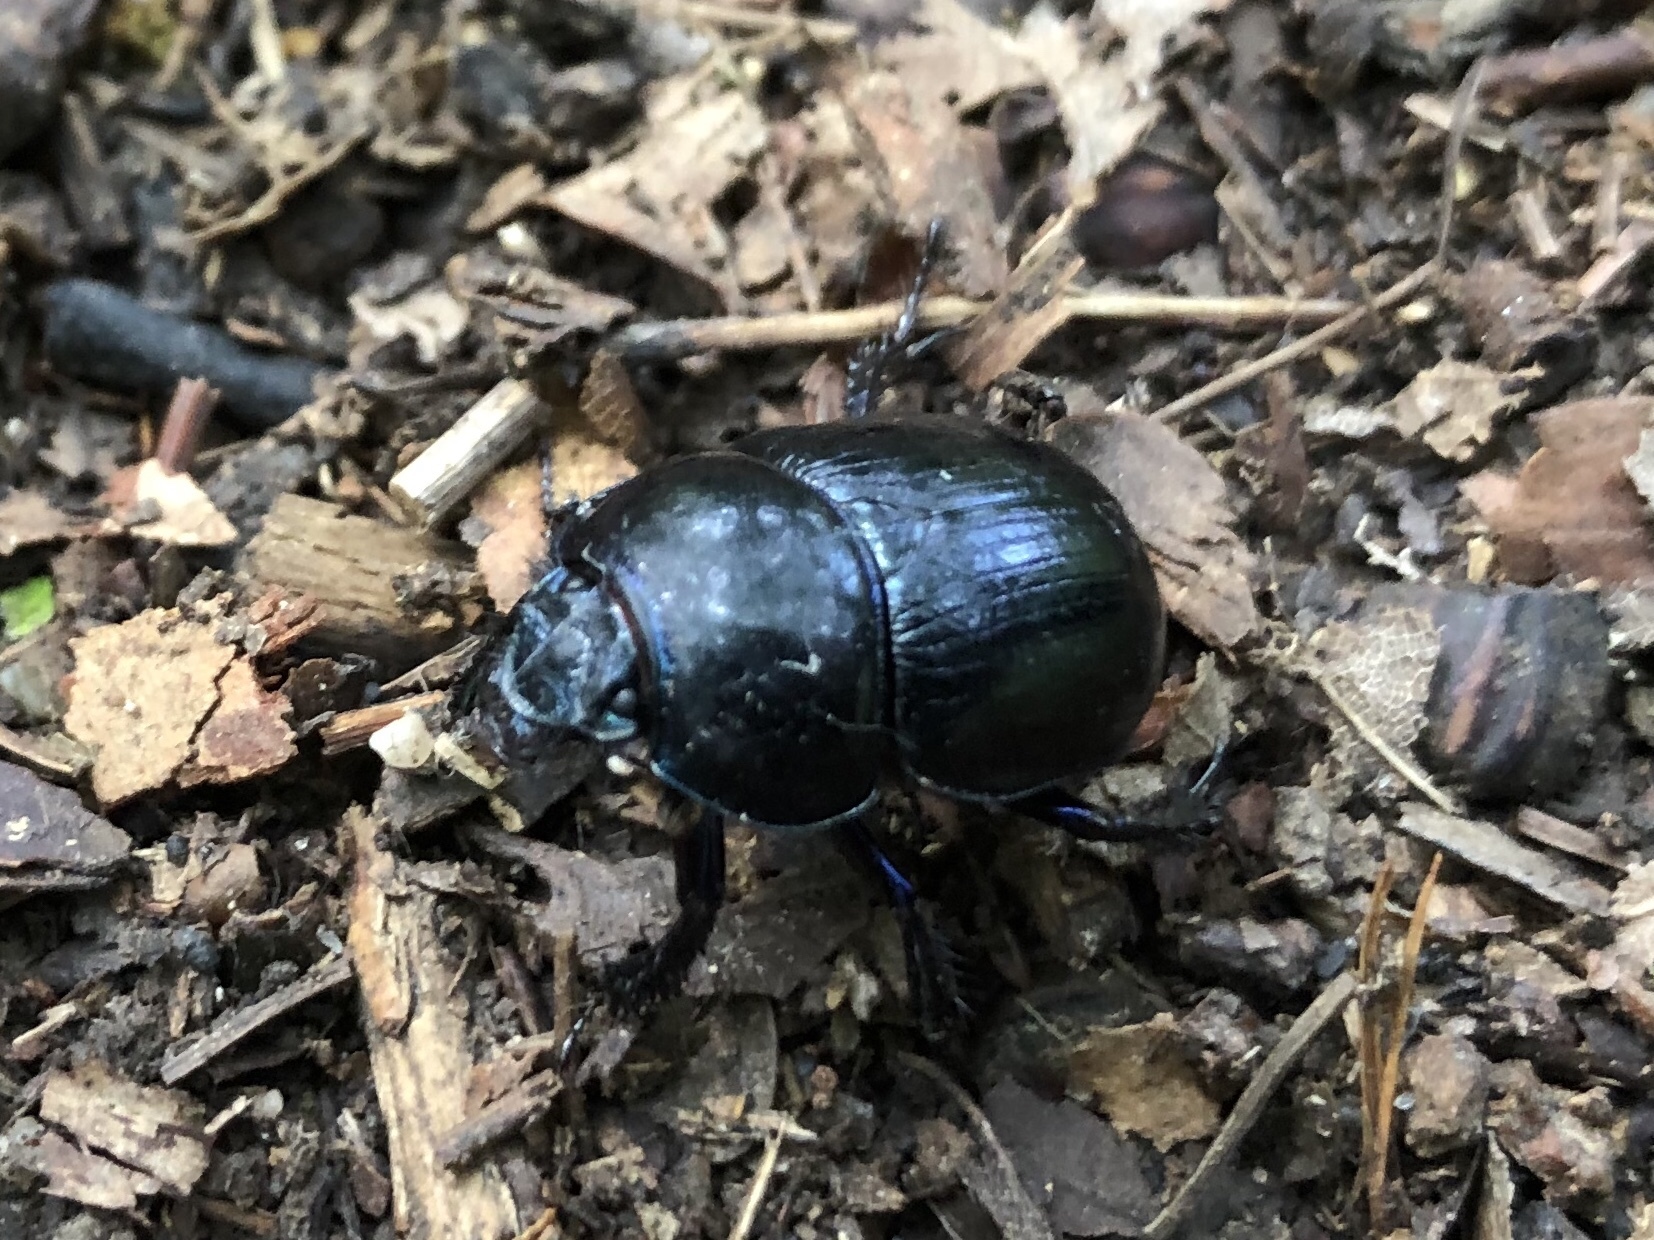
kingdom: Animalia
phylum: Arthropoda
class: Insecta
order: Coleoptera
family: Geotrupidae
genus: Anoplotrupes
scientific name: Anoplotrupes stercorosus
